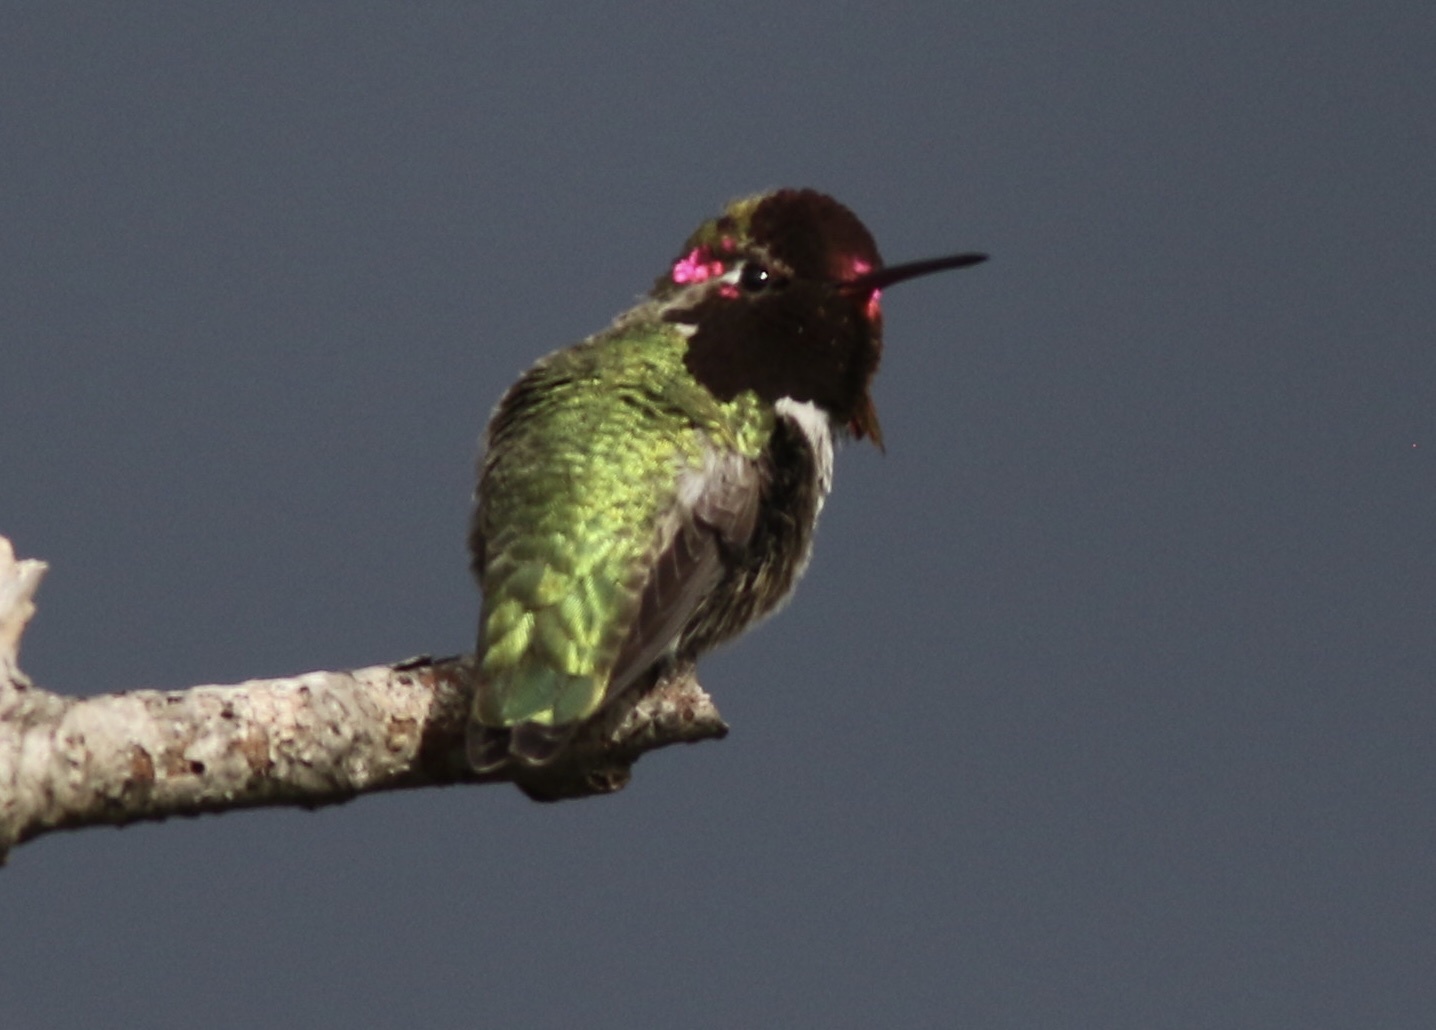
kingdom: Animalia
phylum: Chordata
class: Aves
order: Apodiformes
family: Trochilidae
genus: Calypte
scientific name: Calypte anna
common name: Anna's hummingbird
